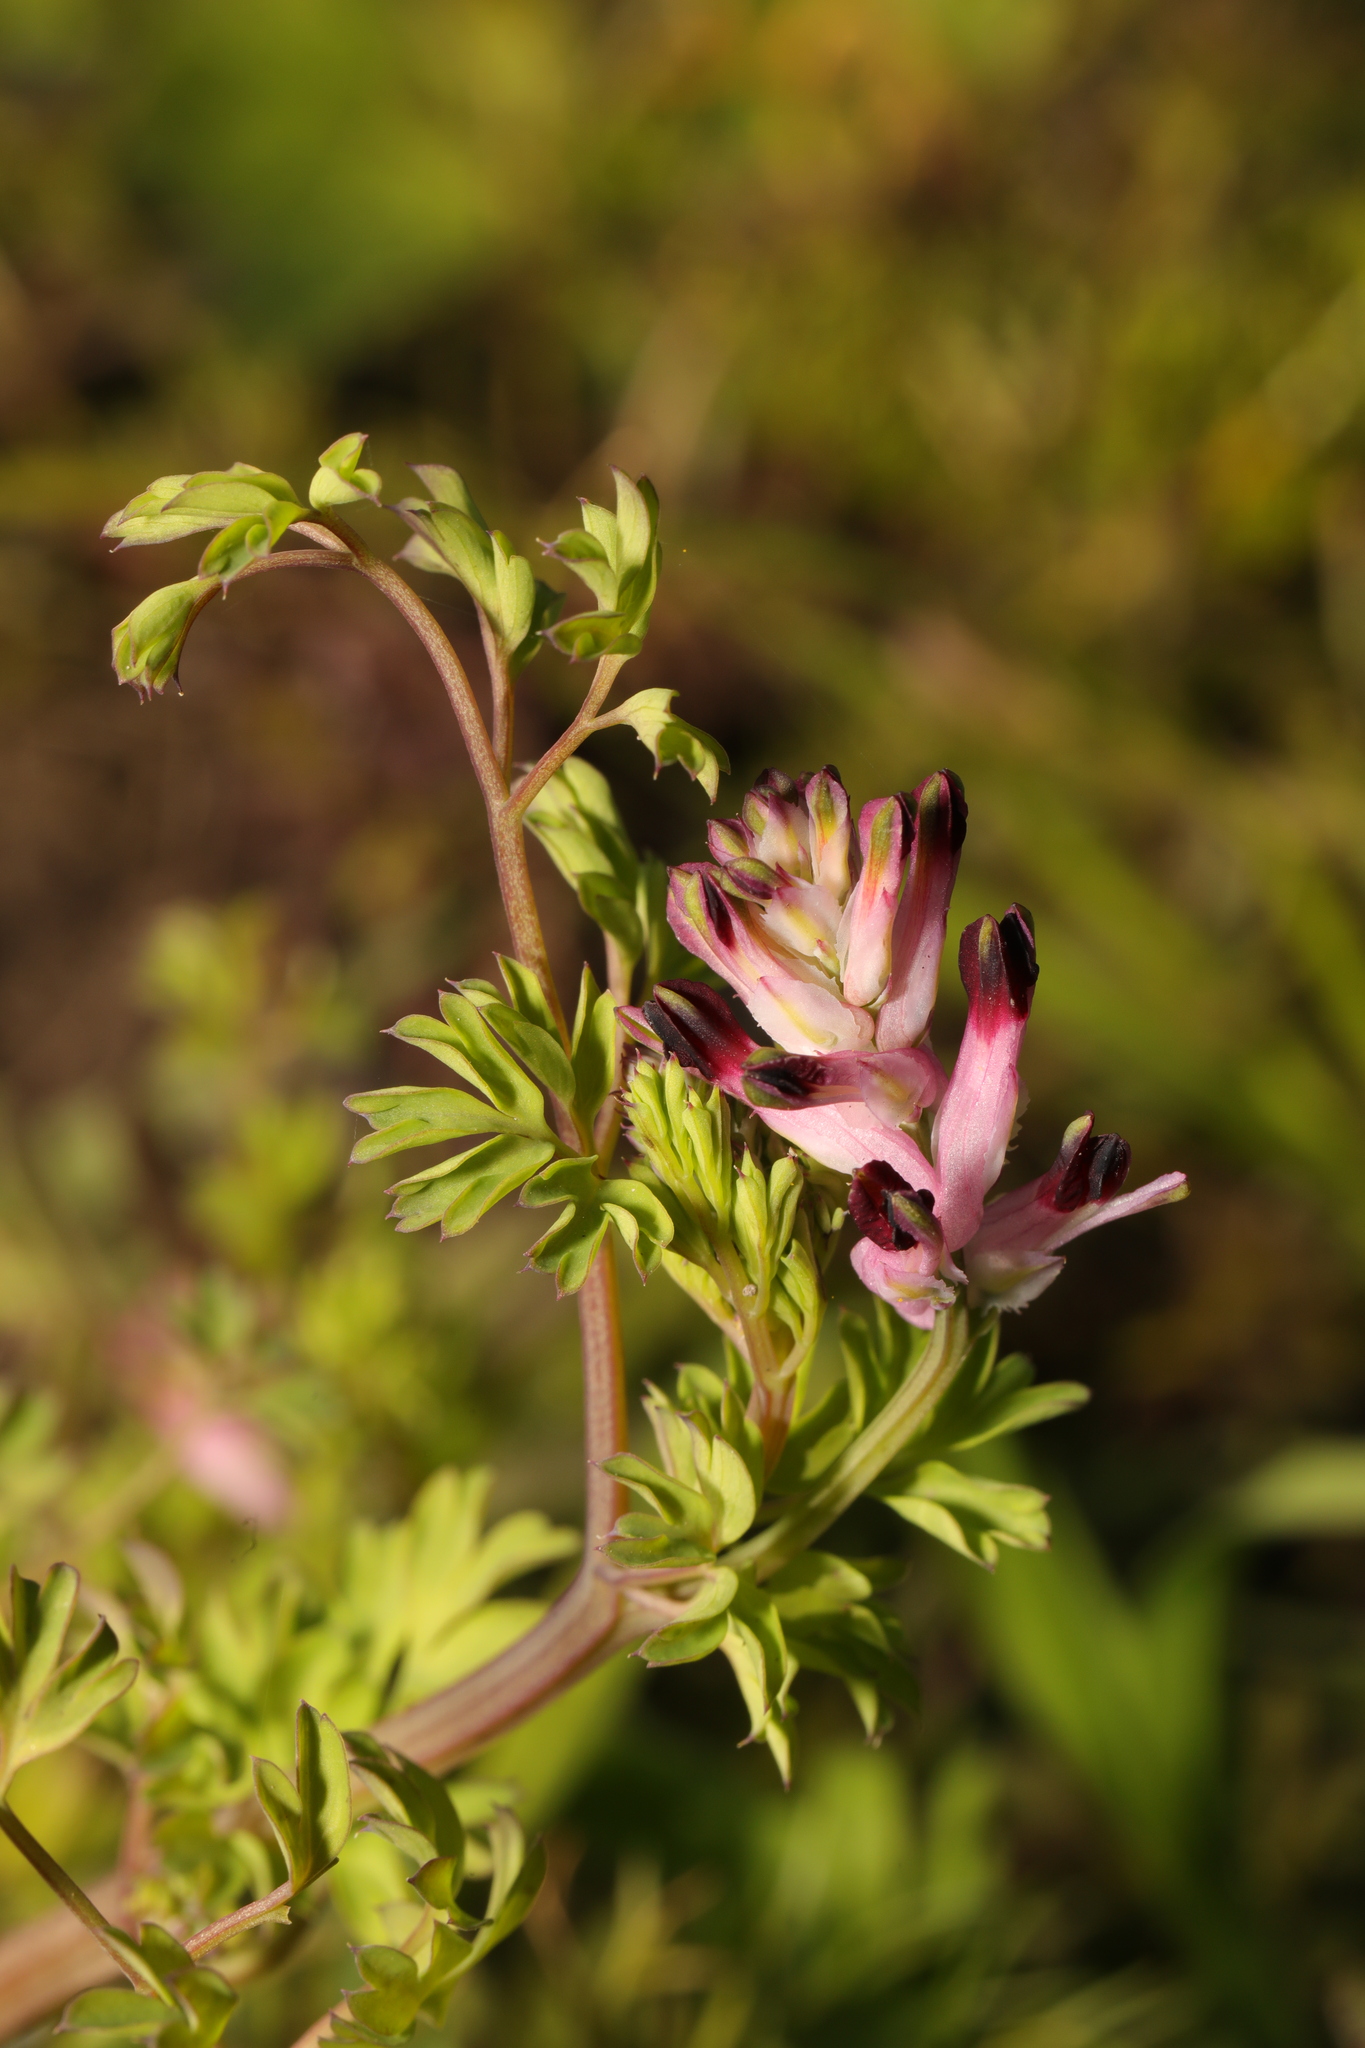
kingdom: Plantae
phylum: Tracheophyta
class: Magnoliopsida
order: Ranunculales
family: Papaveraceae
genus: Fumaria
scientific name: Fumaria muralis
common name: Common ramping-fumitory
